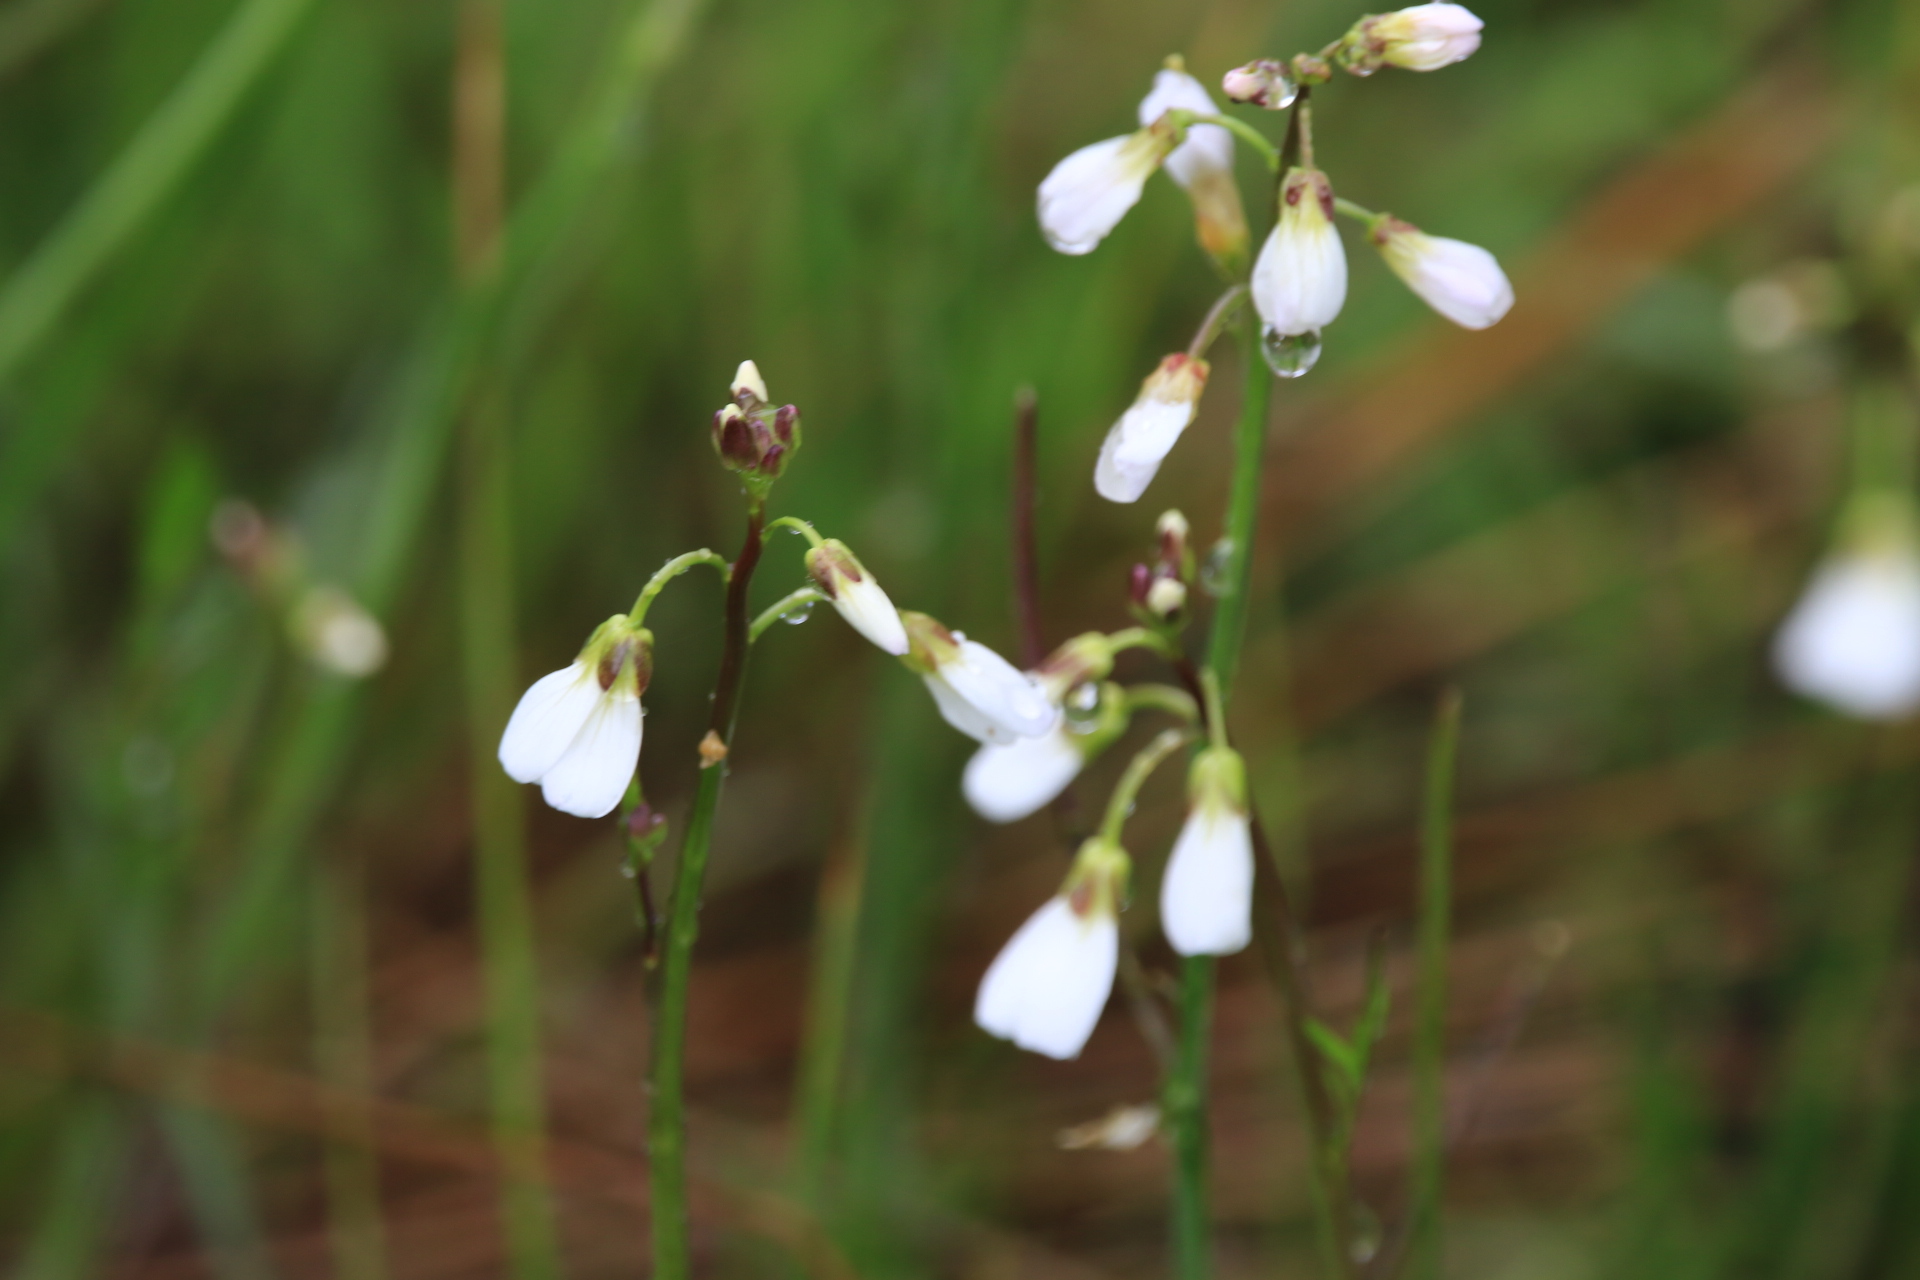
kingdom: Plantae
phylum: Tracheophyta
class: Magnoliopsida
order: Brassicales
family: Brassicaceae
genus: Cardamine
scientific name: Cardamine penduliflora
